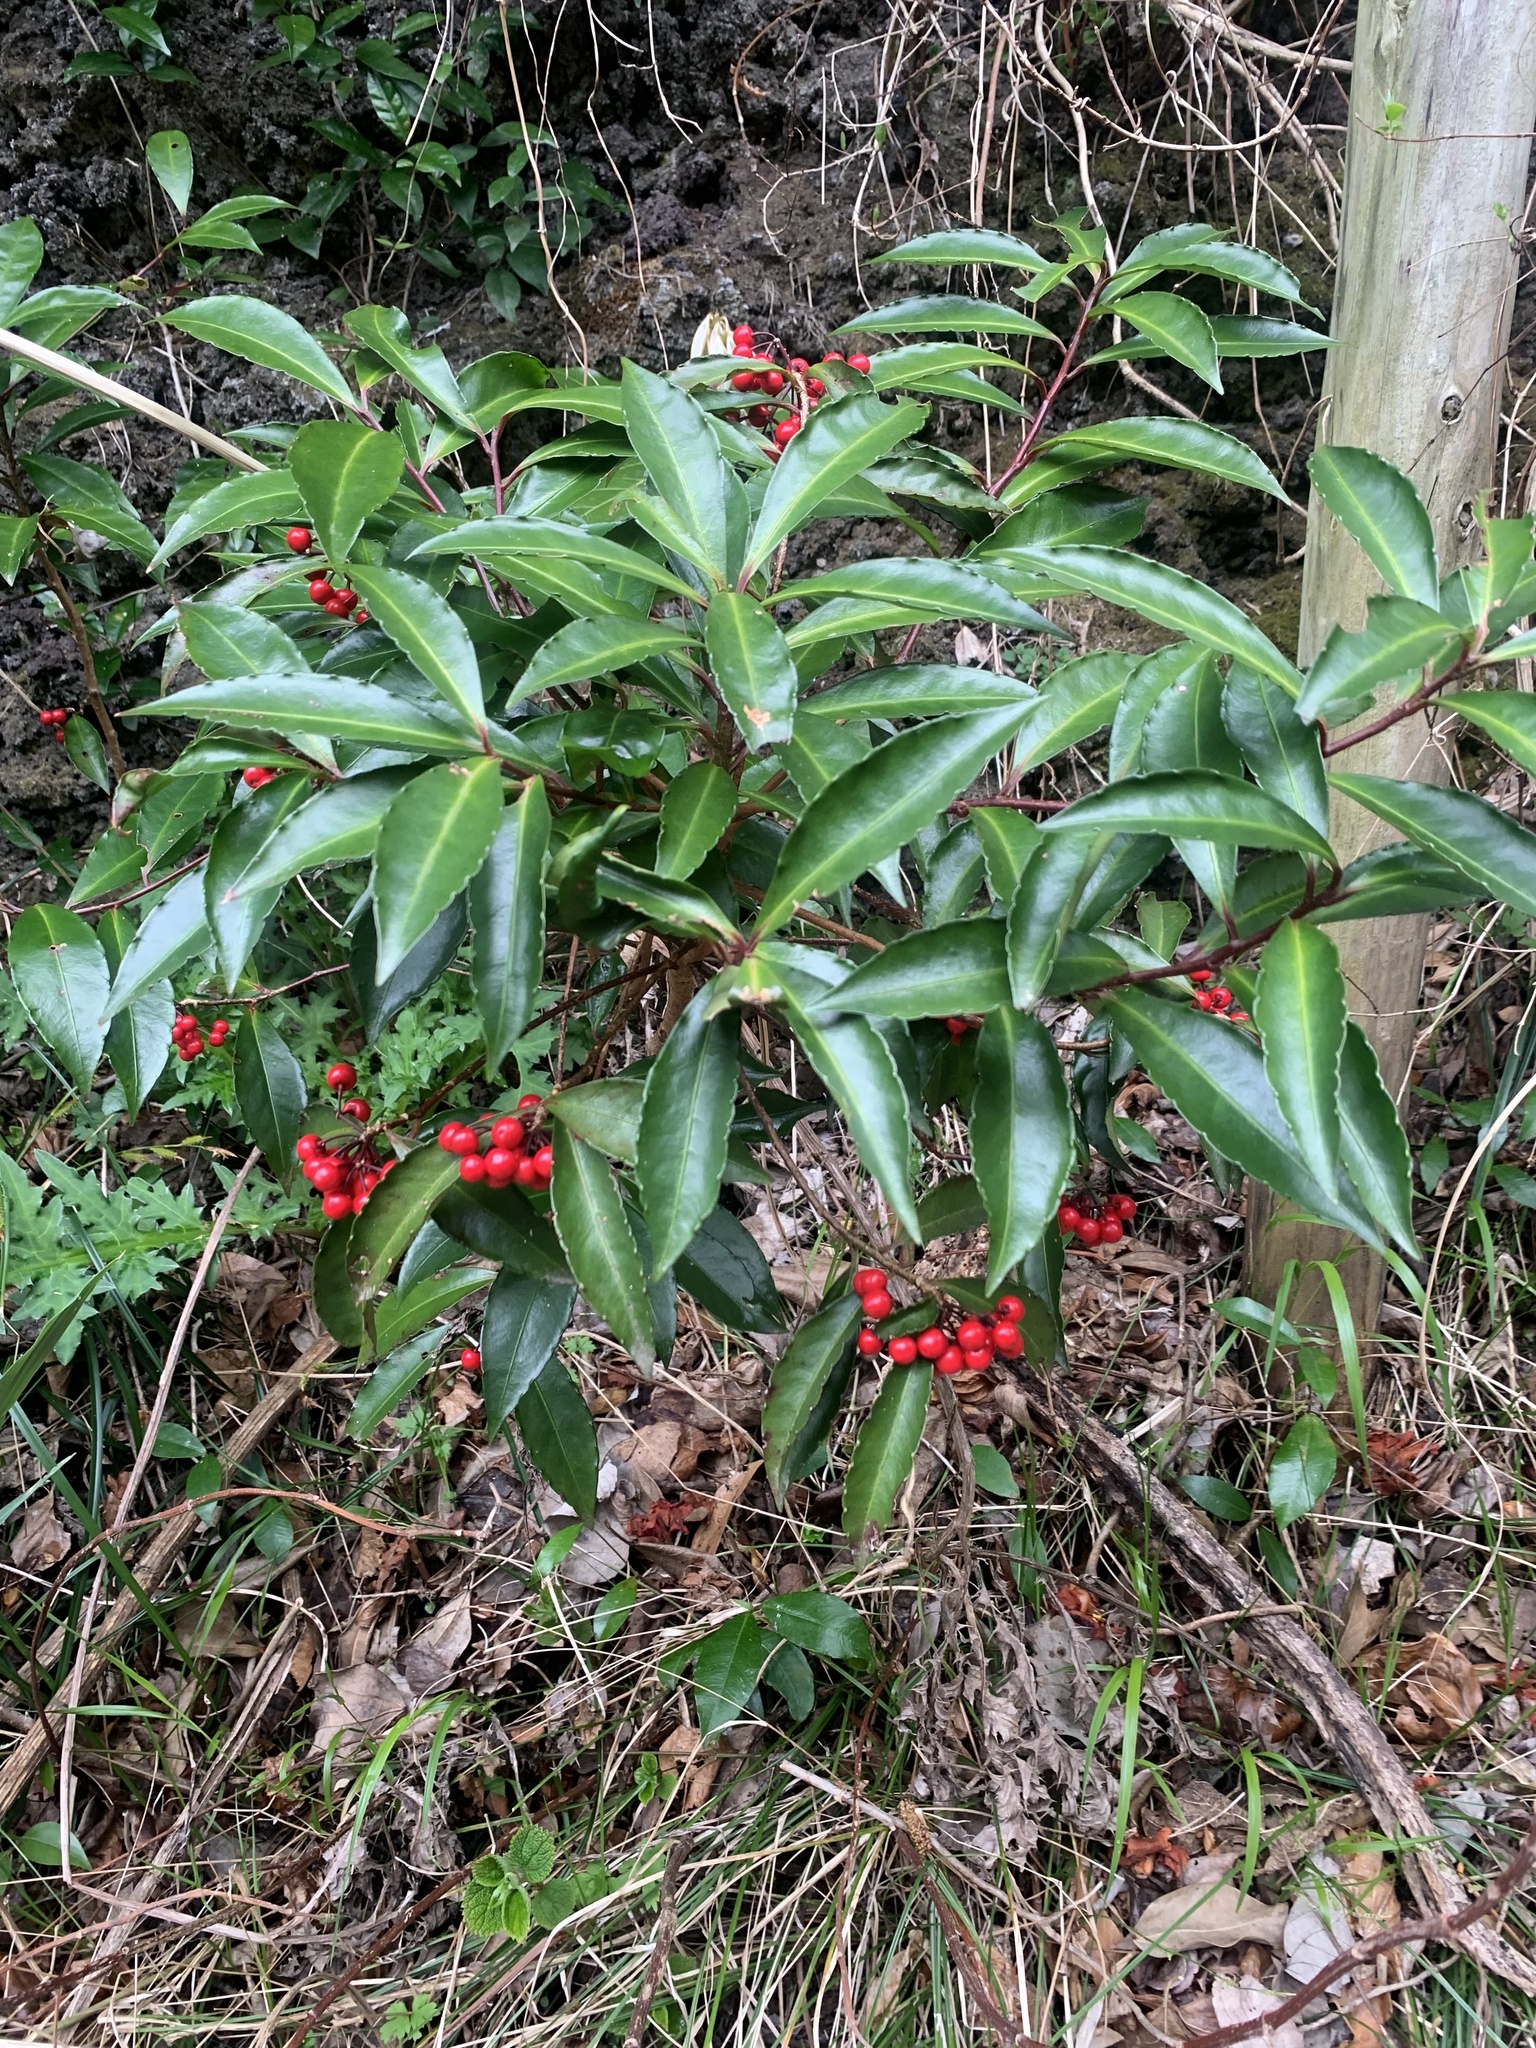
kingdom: Plantae
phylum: Tracheophyta
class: Magnoliopsida
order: Ericales
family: Primulaceae
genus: Ardisia
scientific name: Ardisia crenata
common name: Hen's eyes
